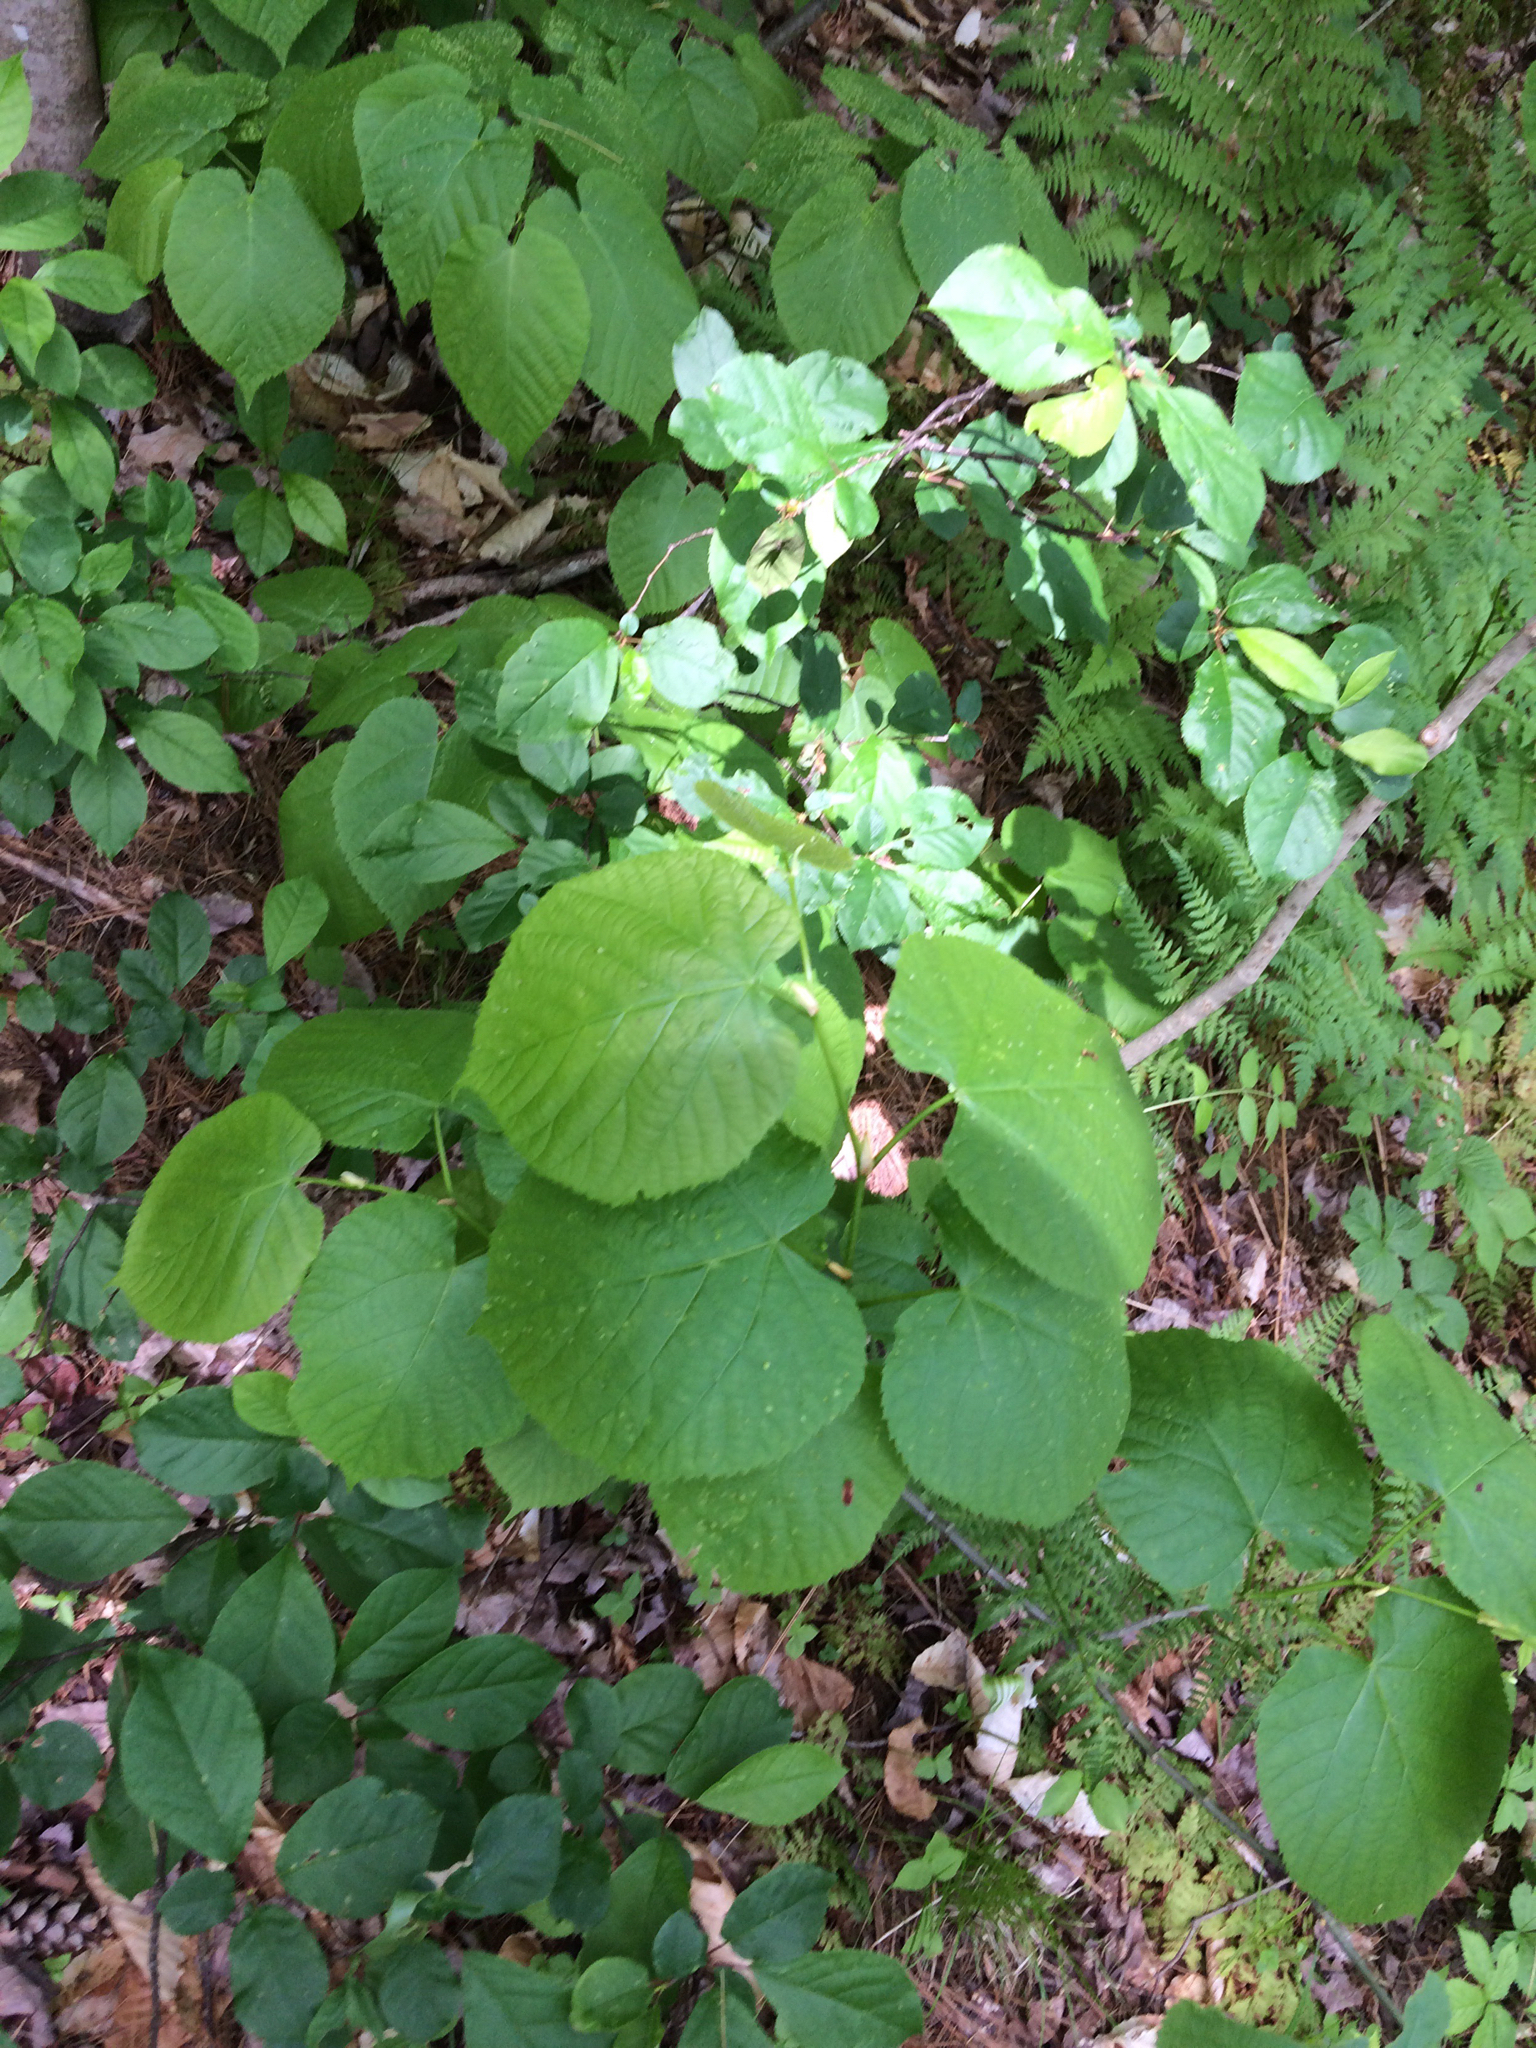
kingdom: Plantae
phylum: Tracheophyta
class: Magnoliopsida
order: Malvales
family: Malvaceae
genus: Tilia
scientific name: Tilia americana
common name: Basswood
